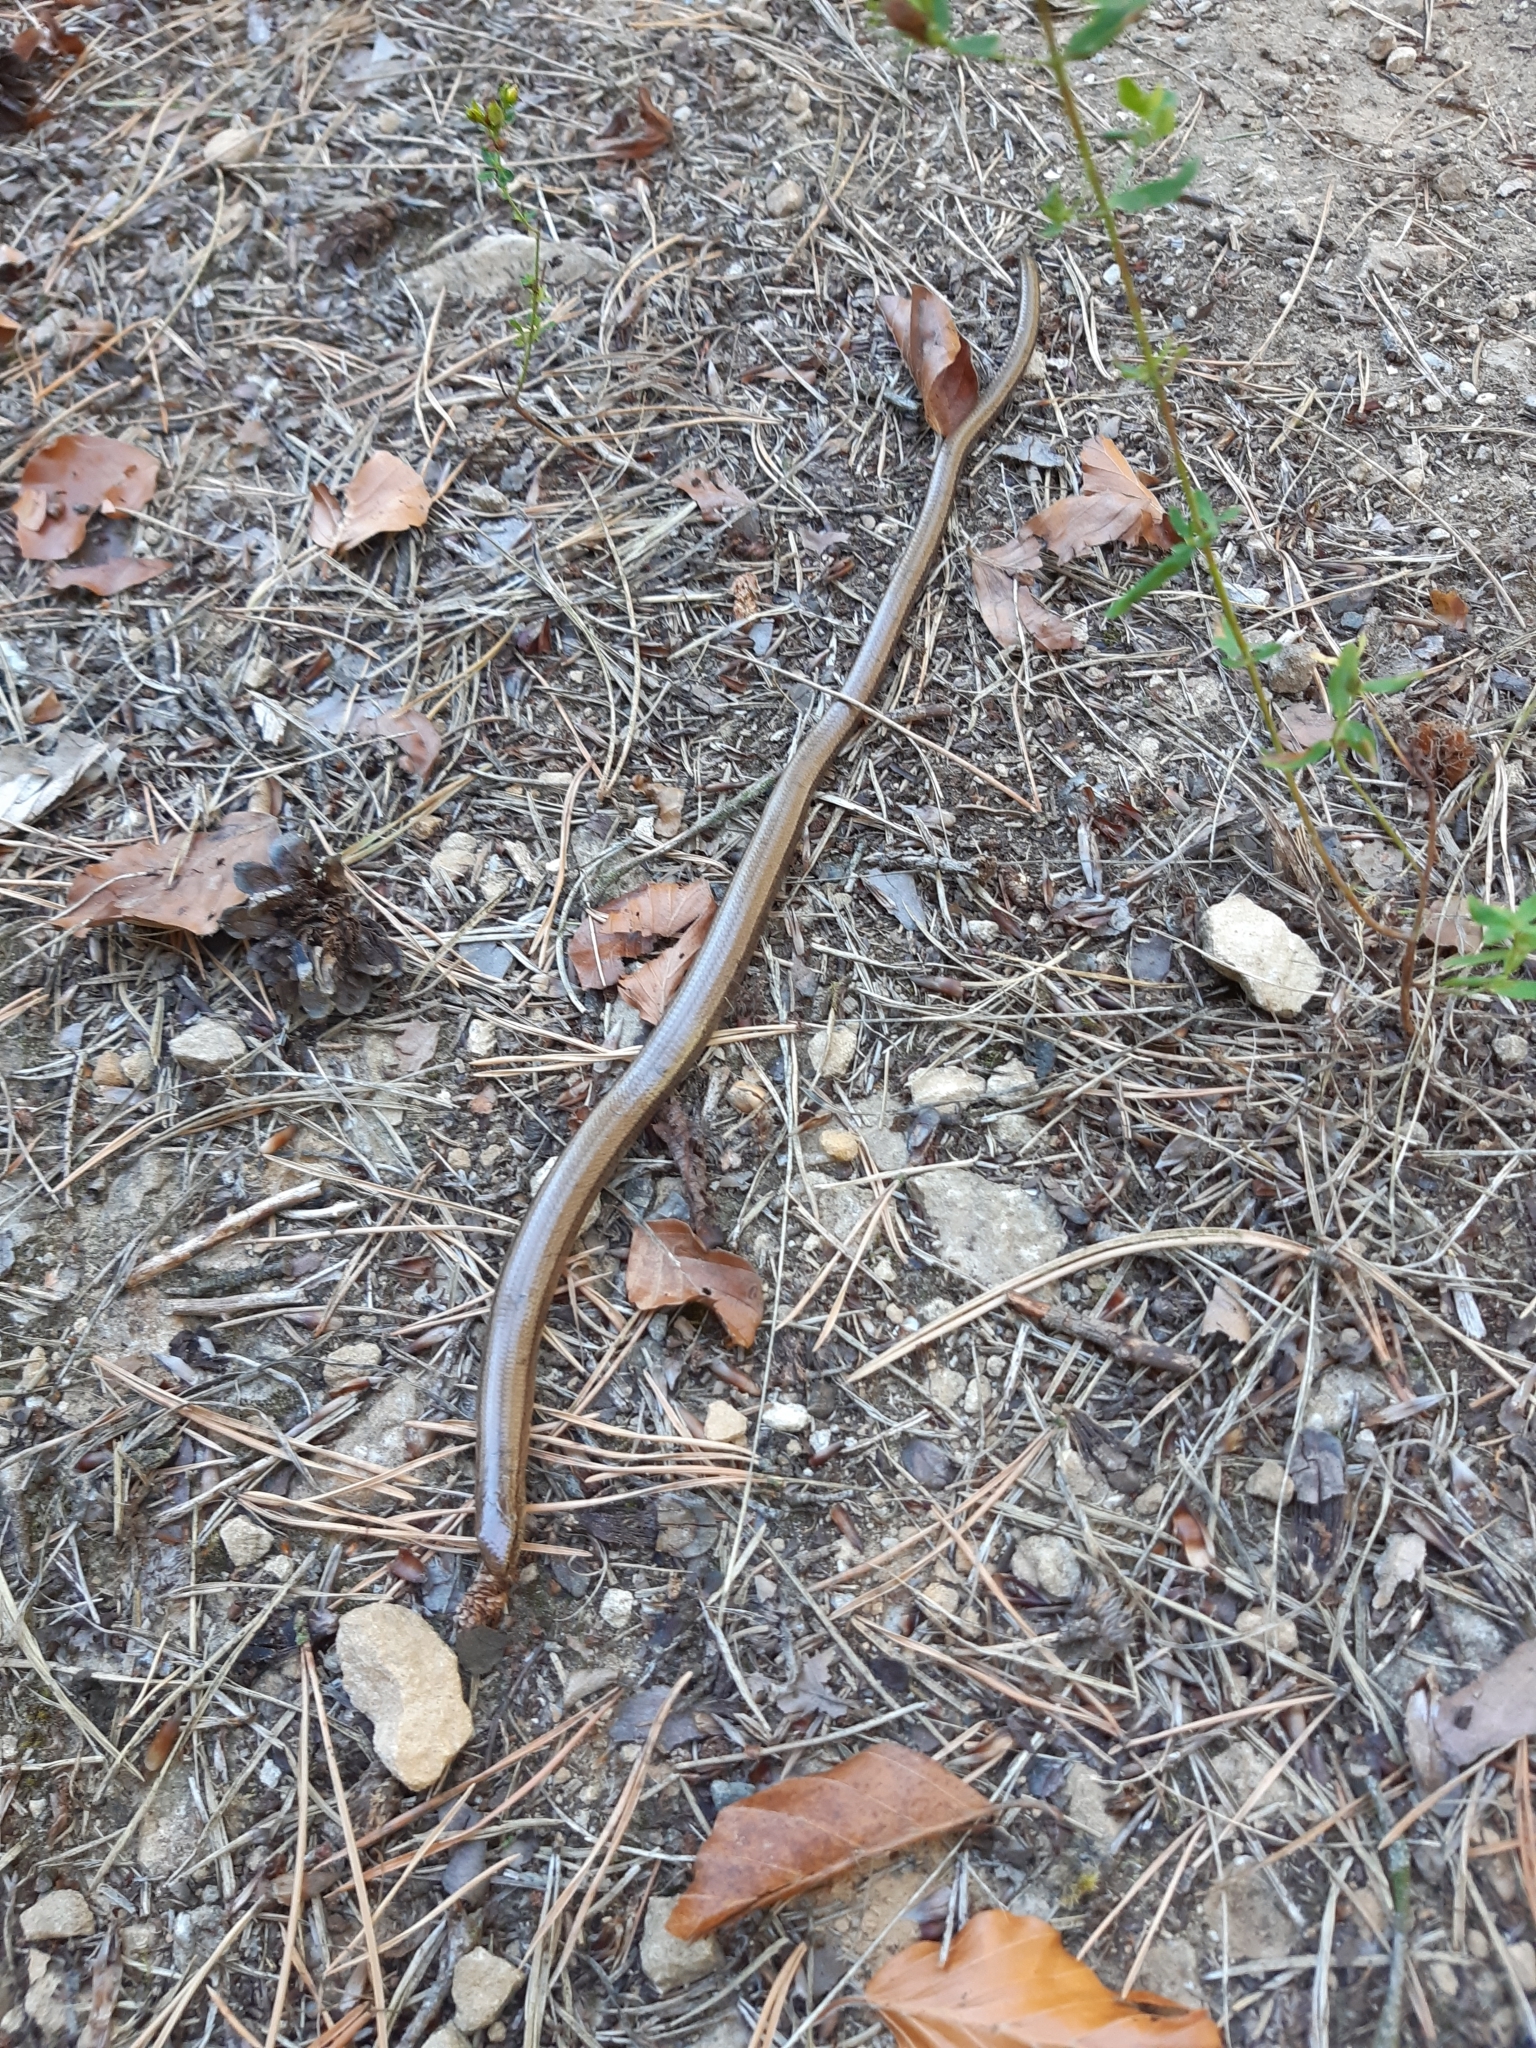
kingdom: Animalia
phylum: Chordata
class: Squamata
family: Anguidae
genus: Anguis
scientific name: Anguis fragilis
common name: Slow worm
